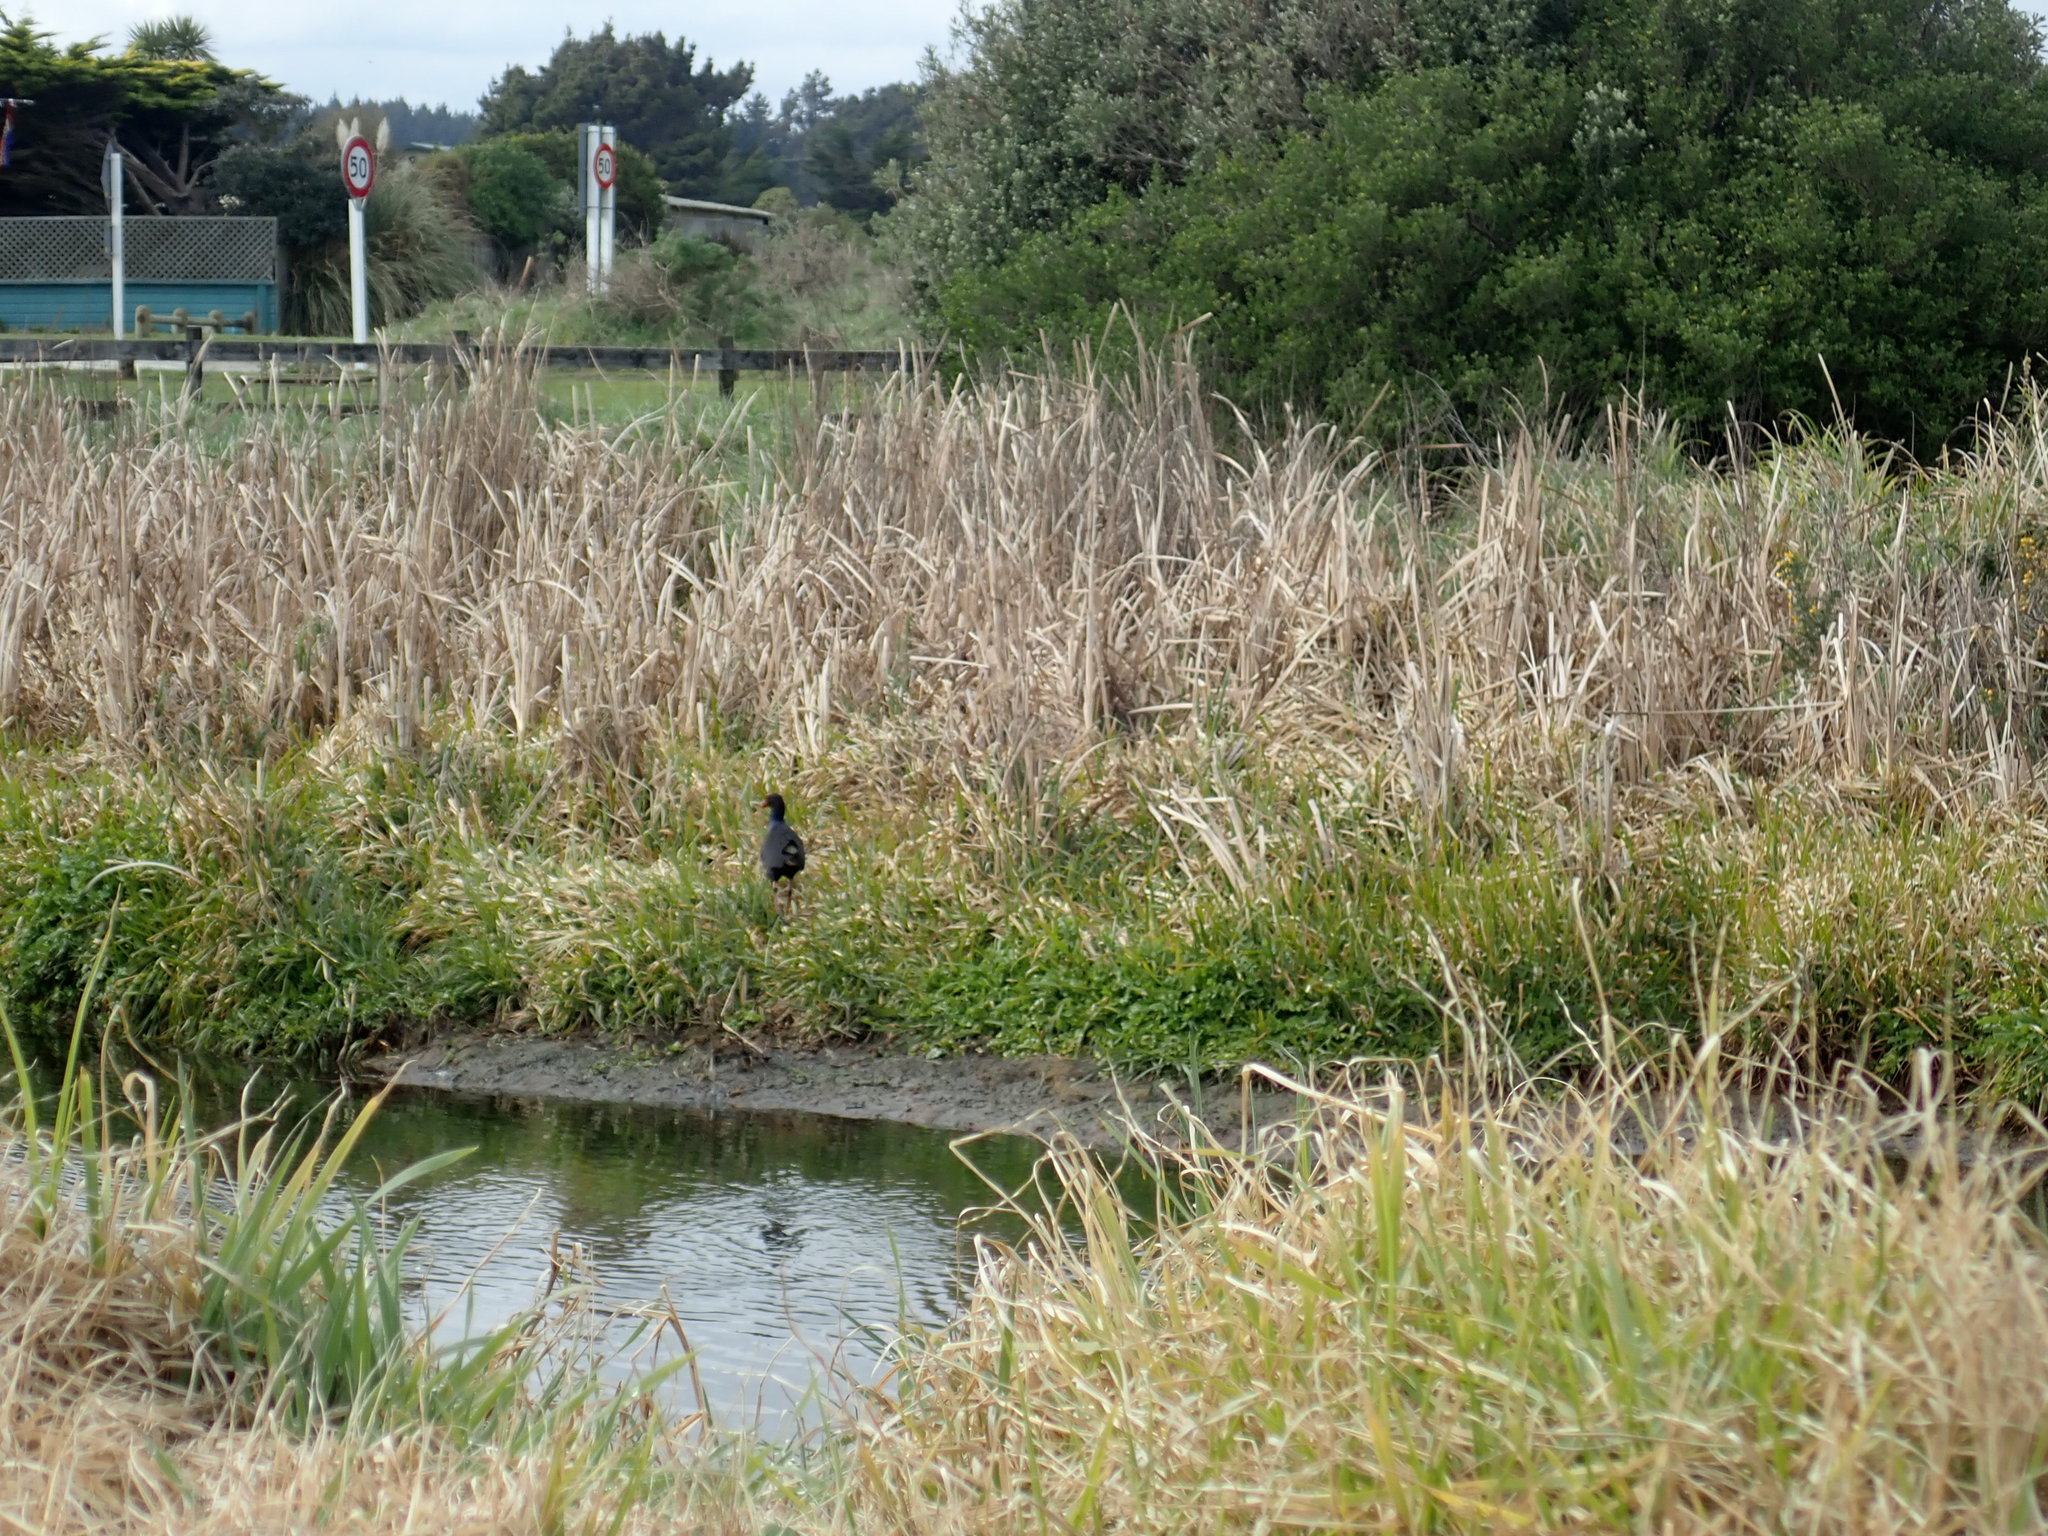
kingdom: Animalia
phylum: Chordata
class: Aves
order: Gruiformes
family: Rallidae
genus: Porphyrio
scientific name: Porphyrio melanotus
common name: Australasian swamphen
